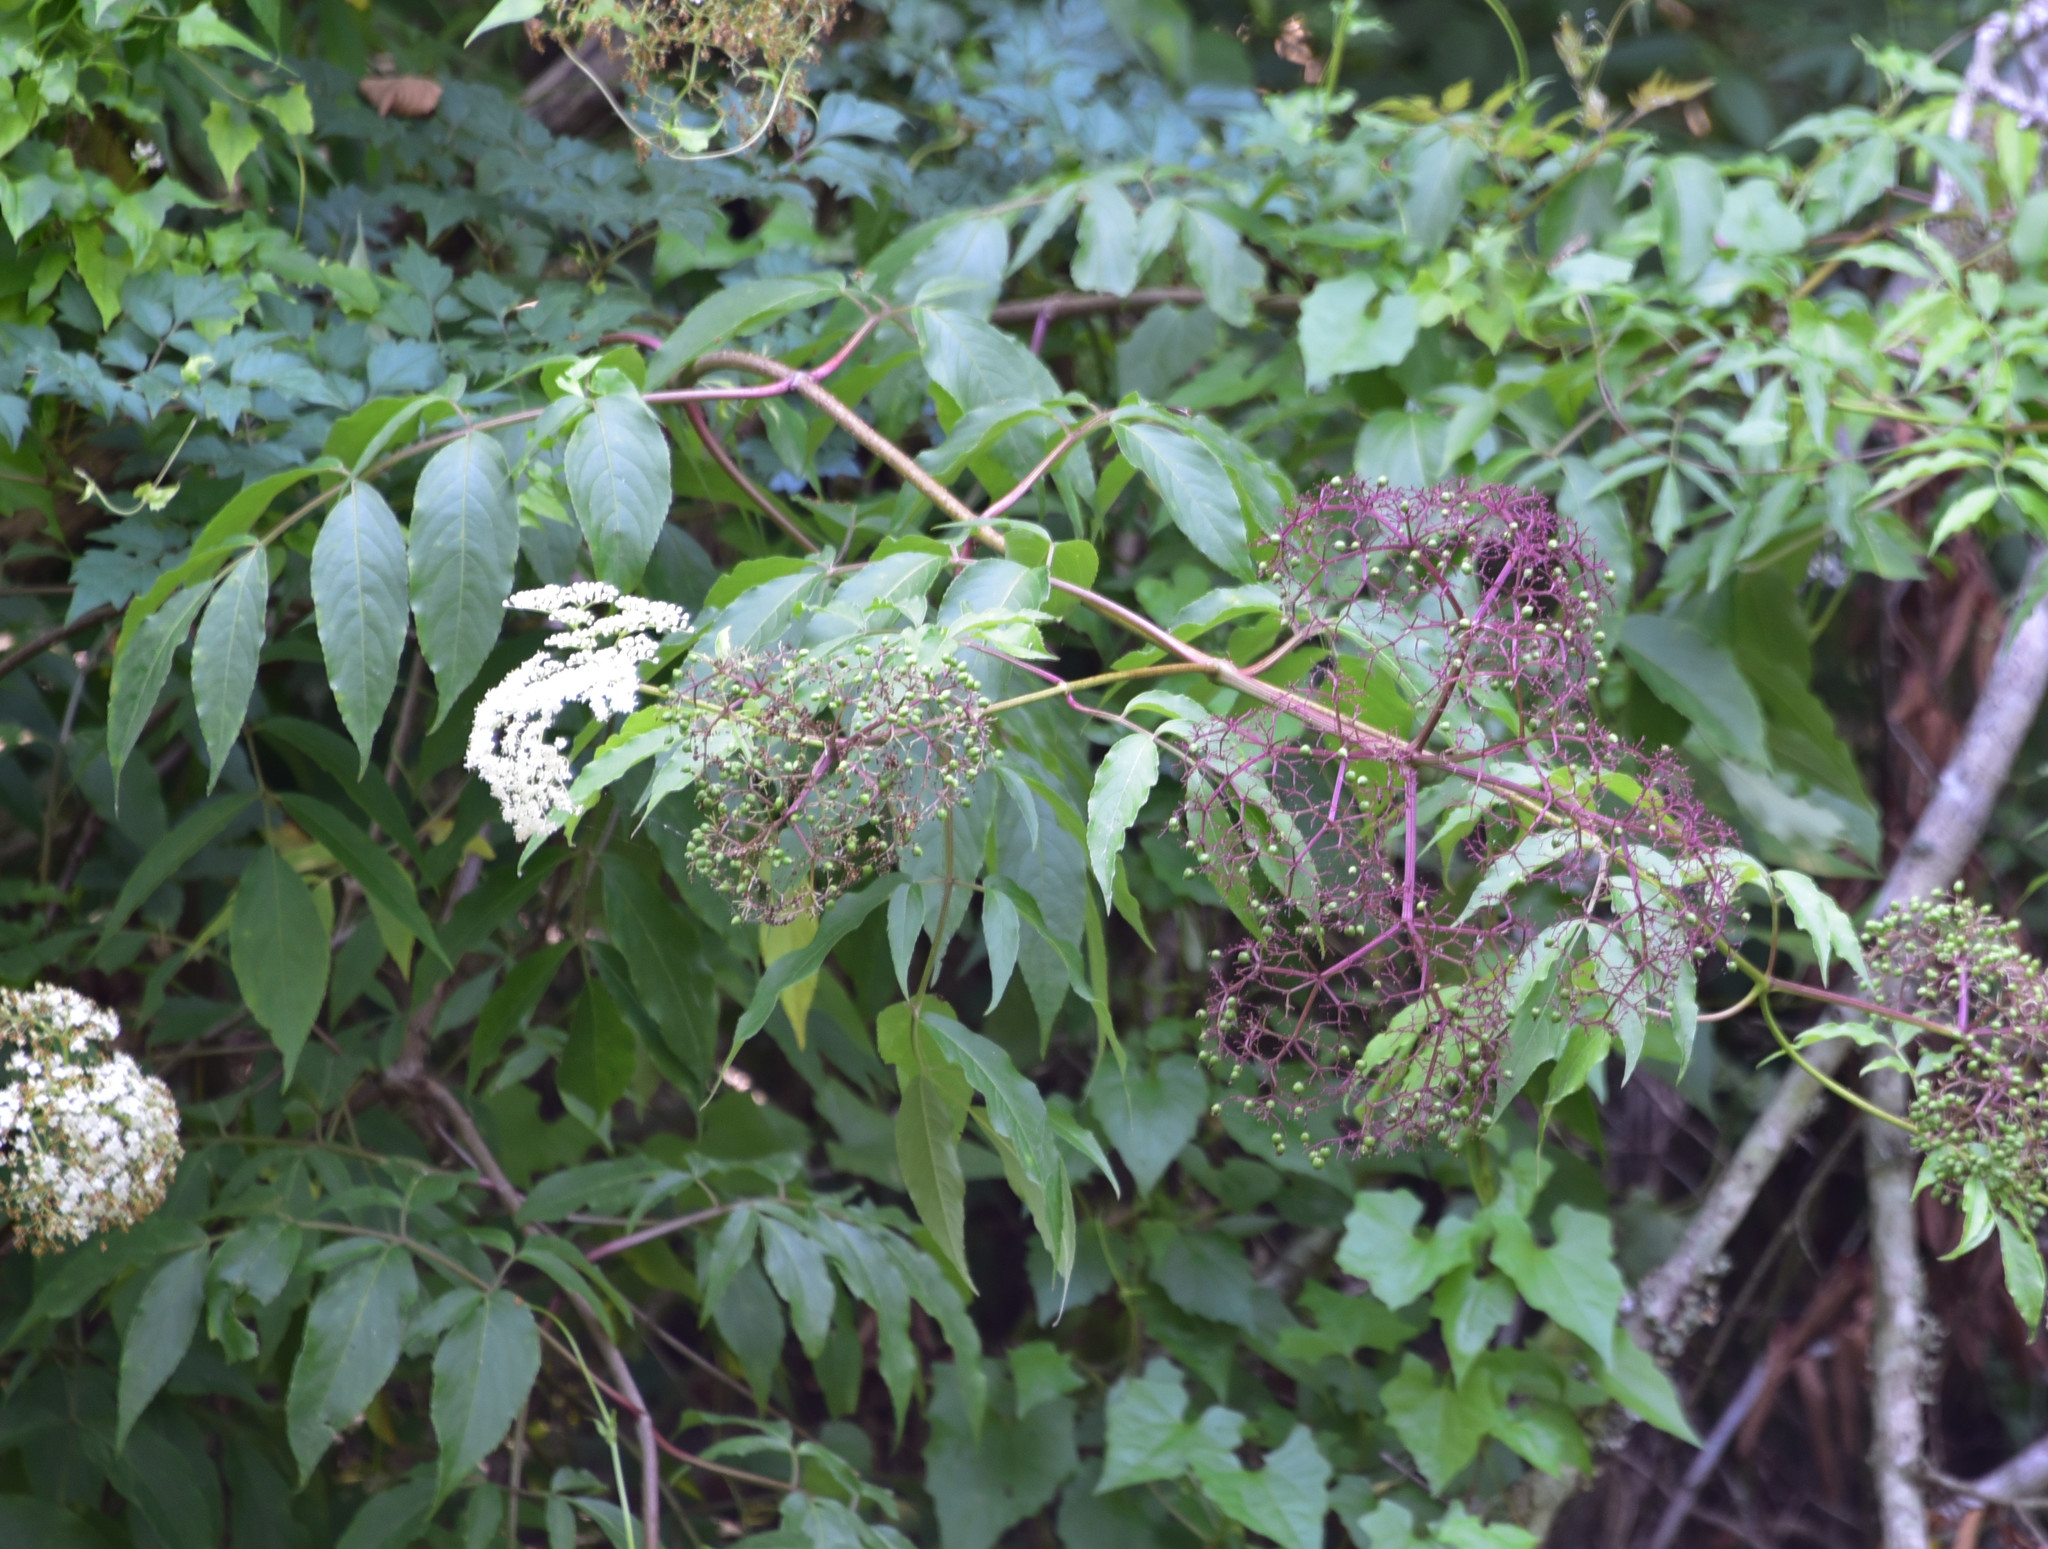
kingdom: Plantae
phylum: Tracheophyta
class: Magnoliopsida
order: Dipsacales
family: Viburnaceae
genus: Sambucus
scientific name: Sambucus canadensis
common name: American elder
